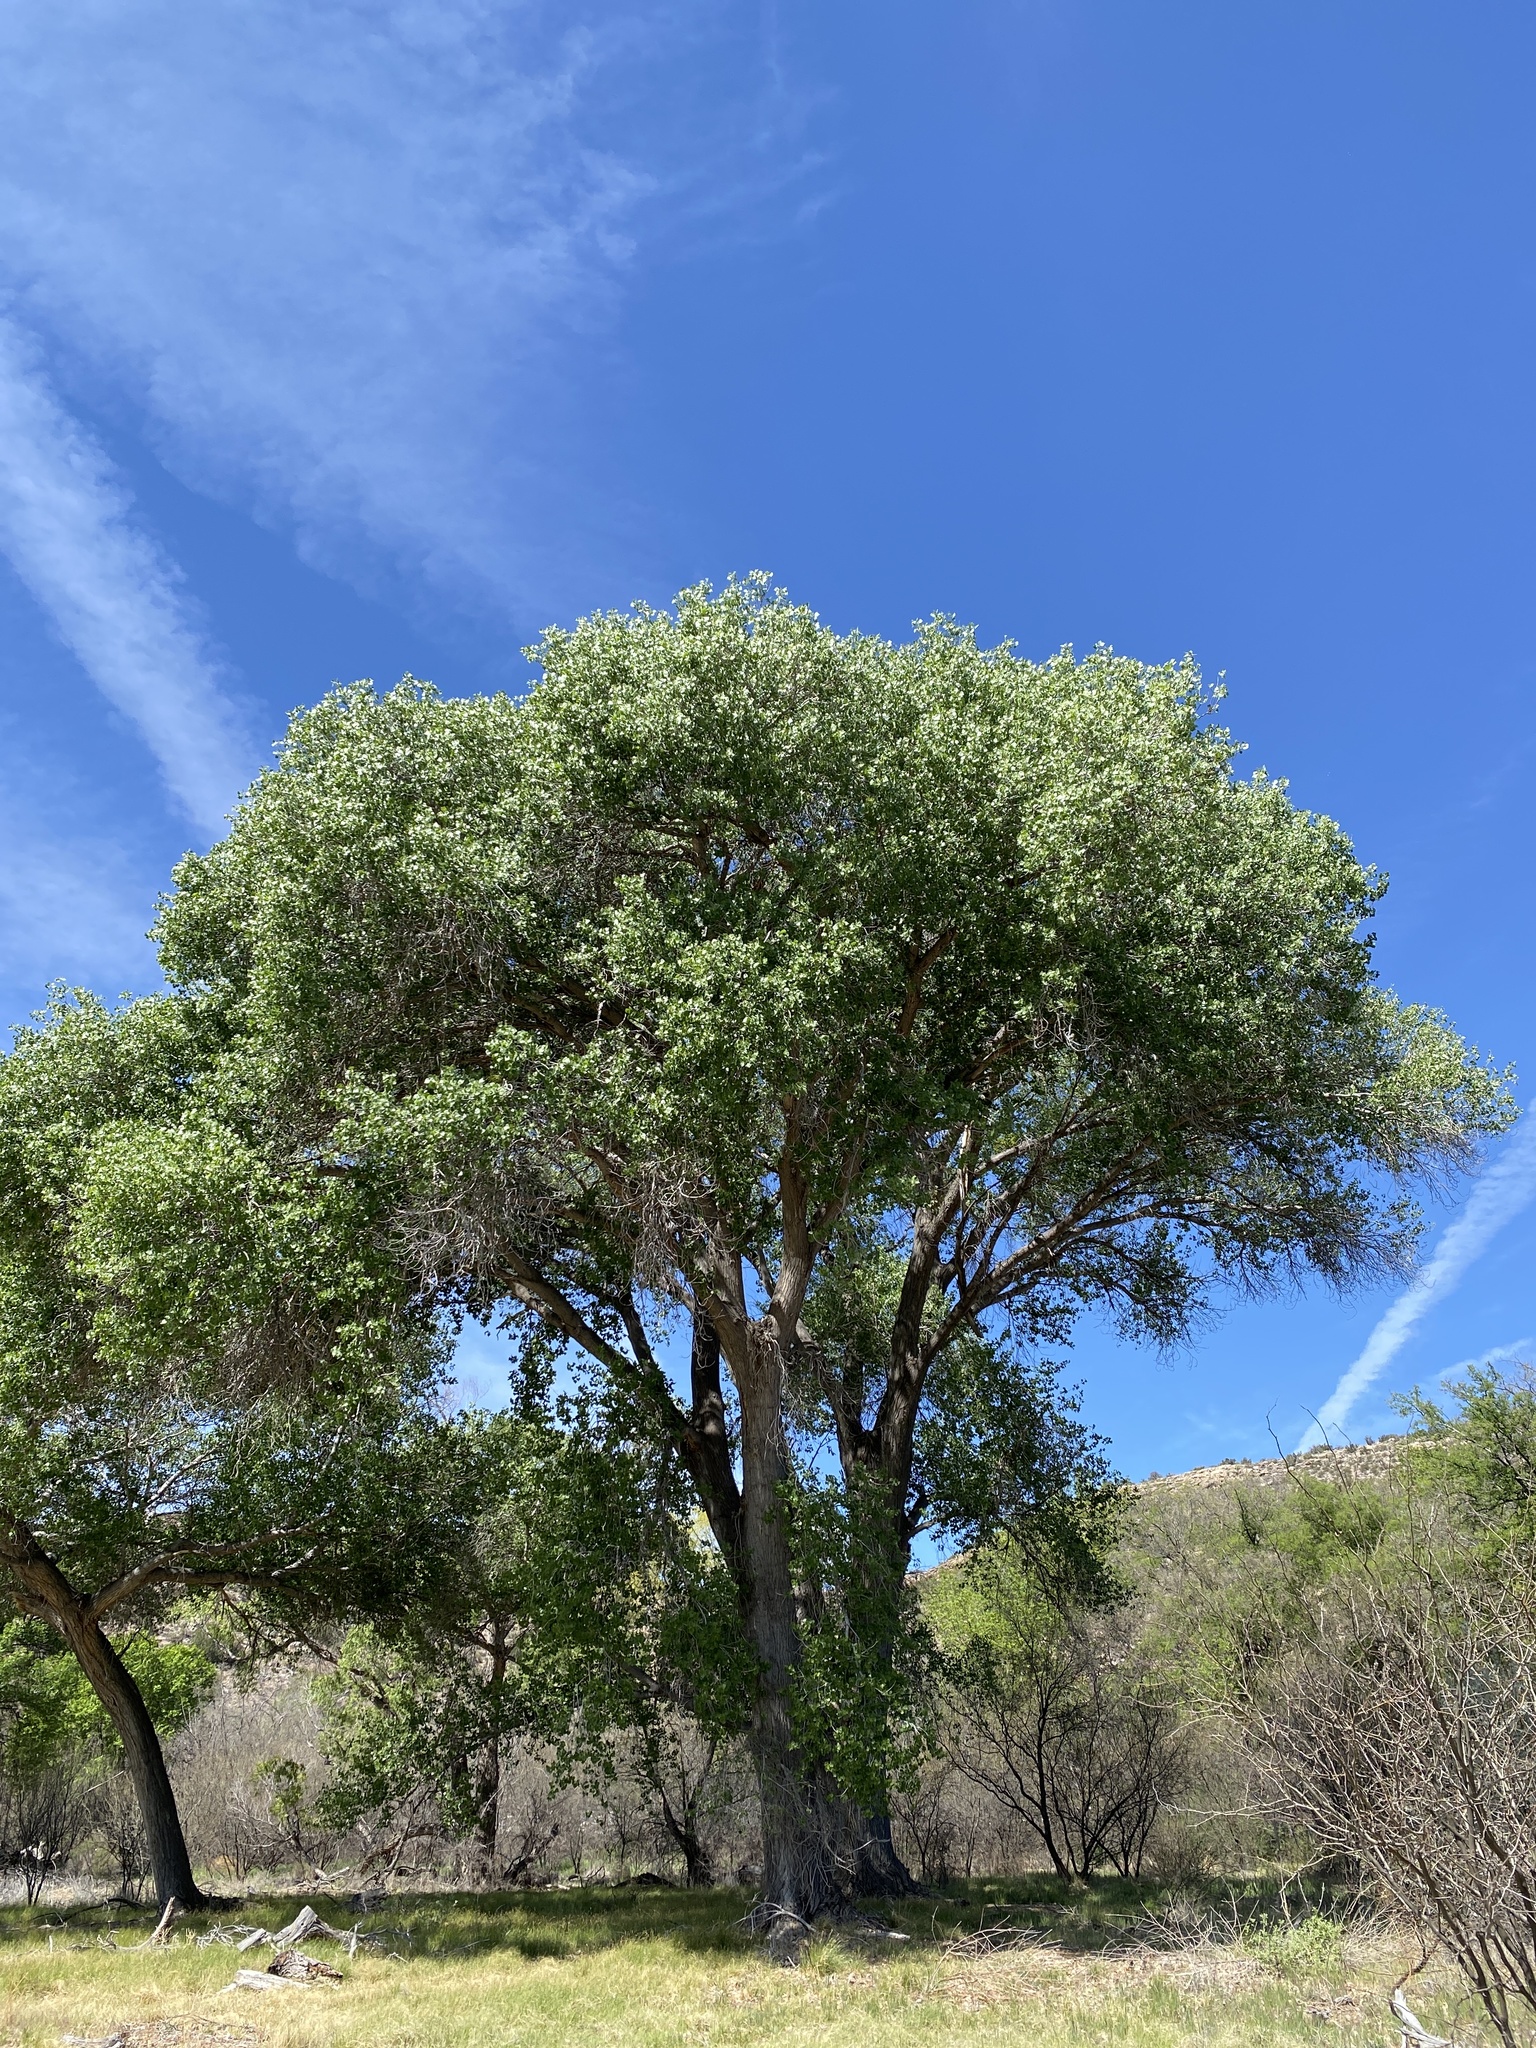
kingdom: Plantae
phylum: Tracheophyta
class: Magnoliopsida
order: Malpighiales
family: Salicaceae
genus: Populus
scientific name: Populus fremontii
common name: Fremont's cottonwood
